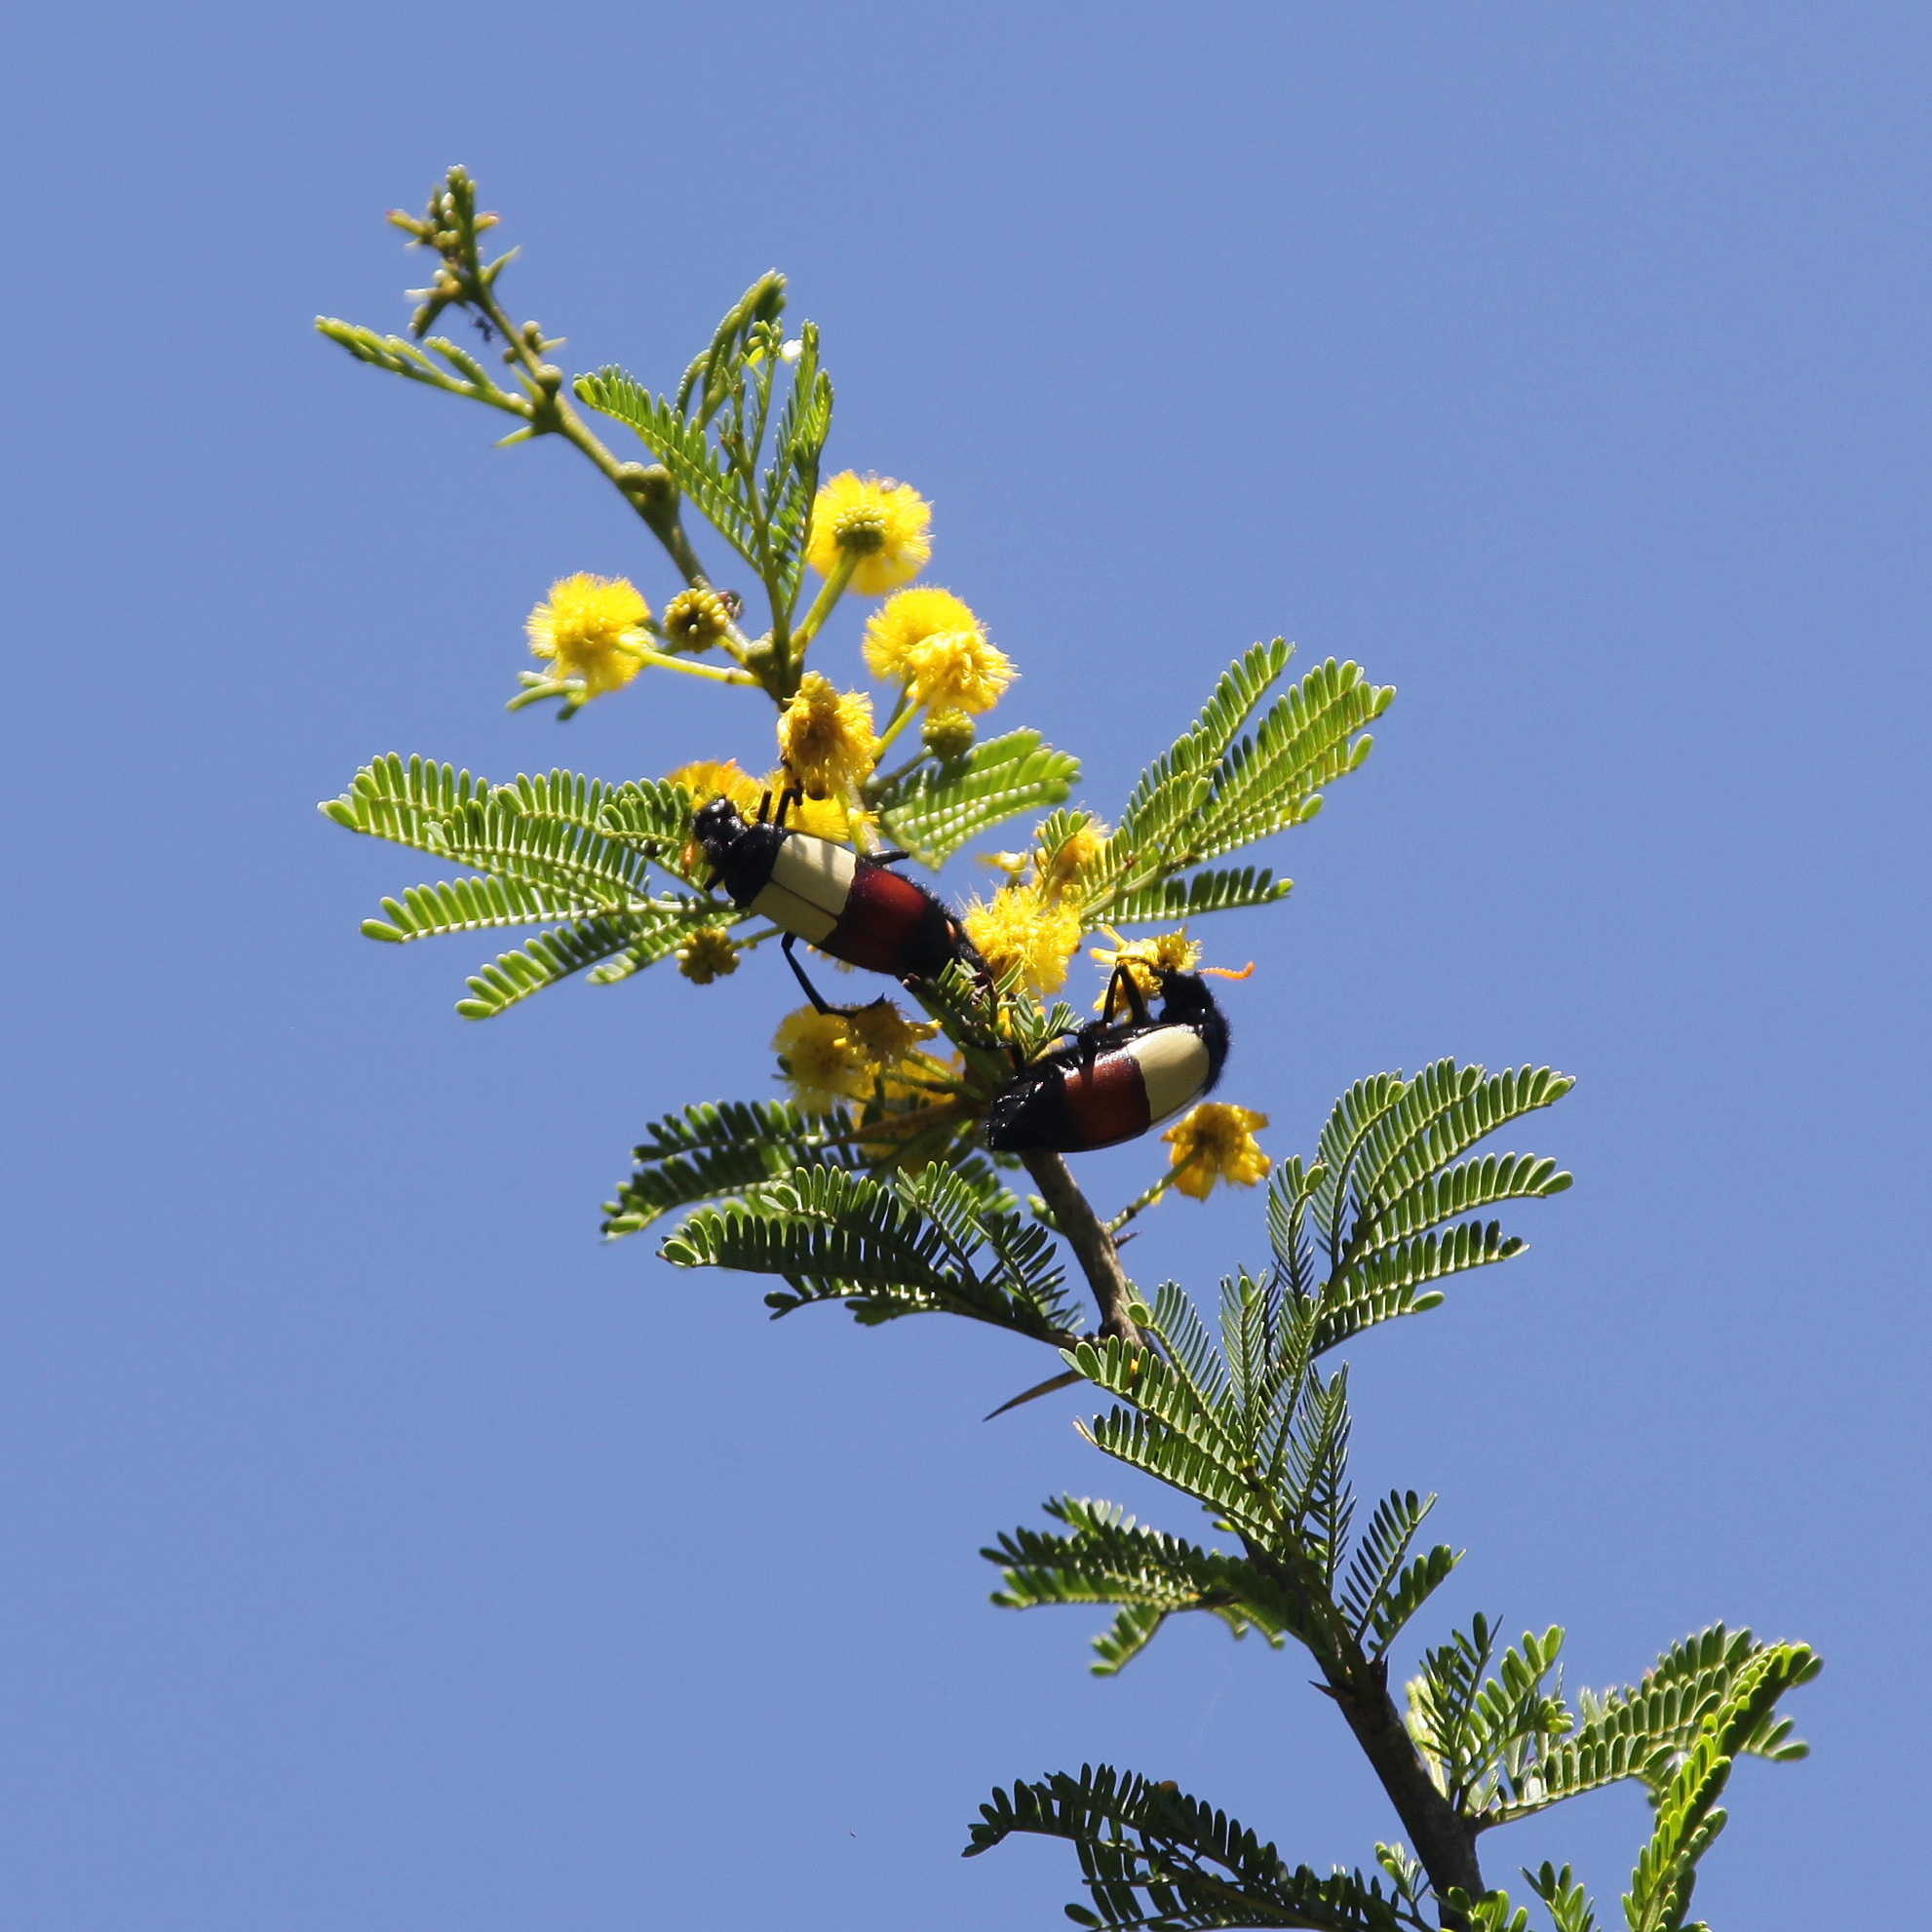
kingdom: Animalia
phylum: Arthropoda
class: Insecta
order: Coleoptera
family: Meloidae
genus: Hycleus
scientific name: Hycleus
